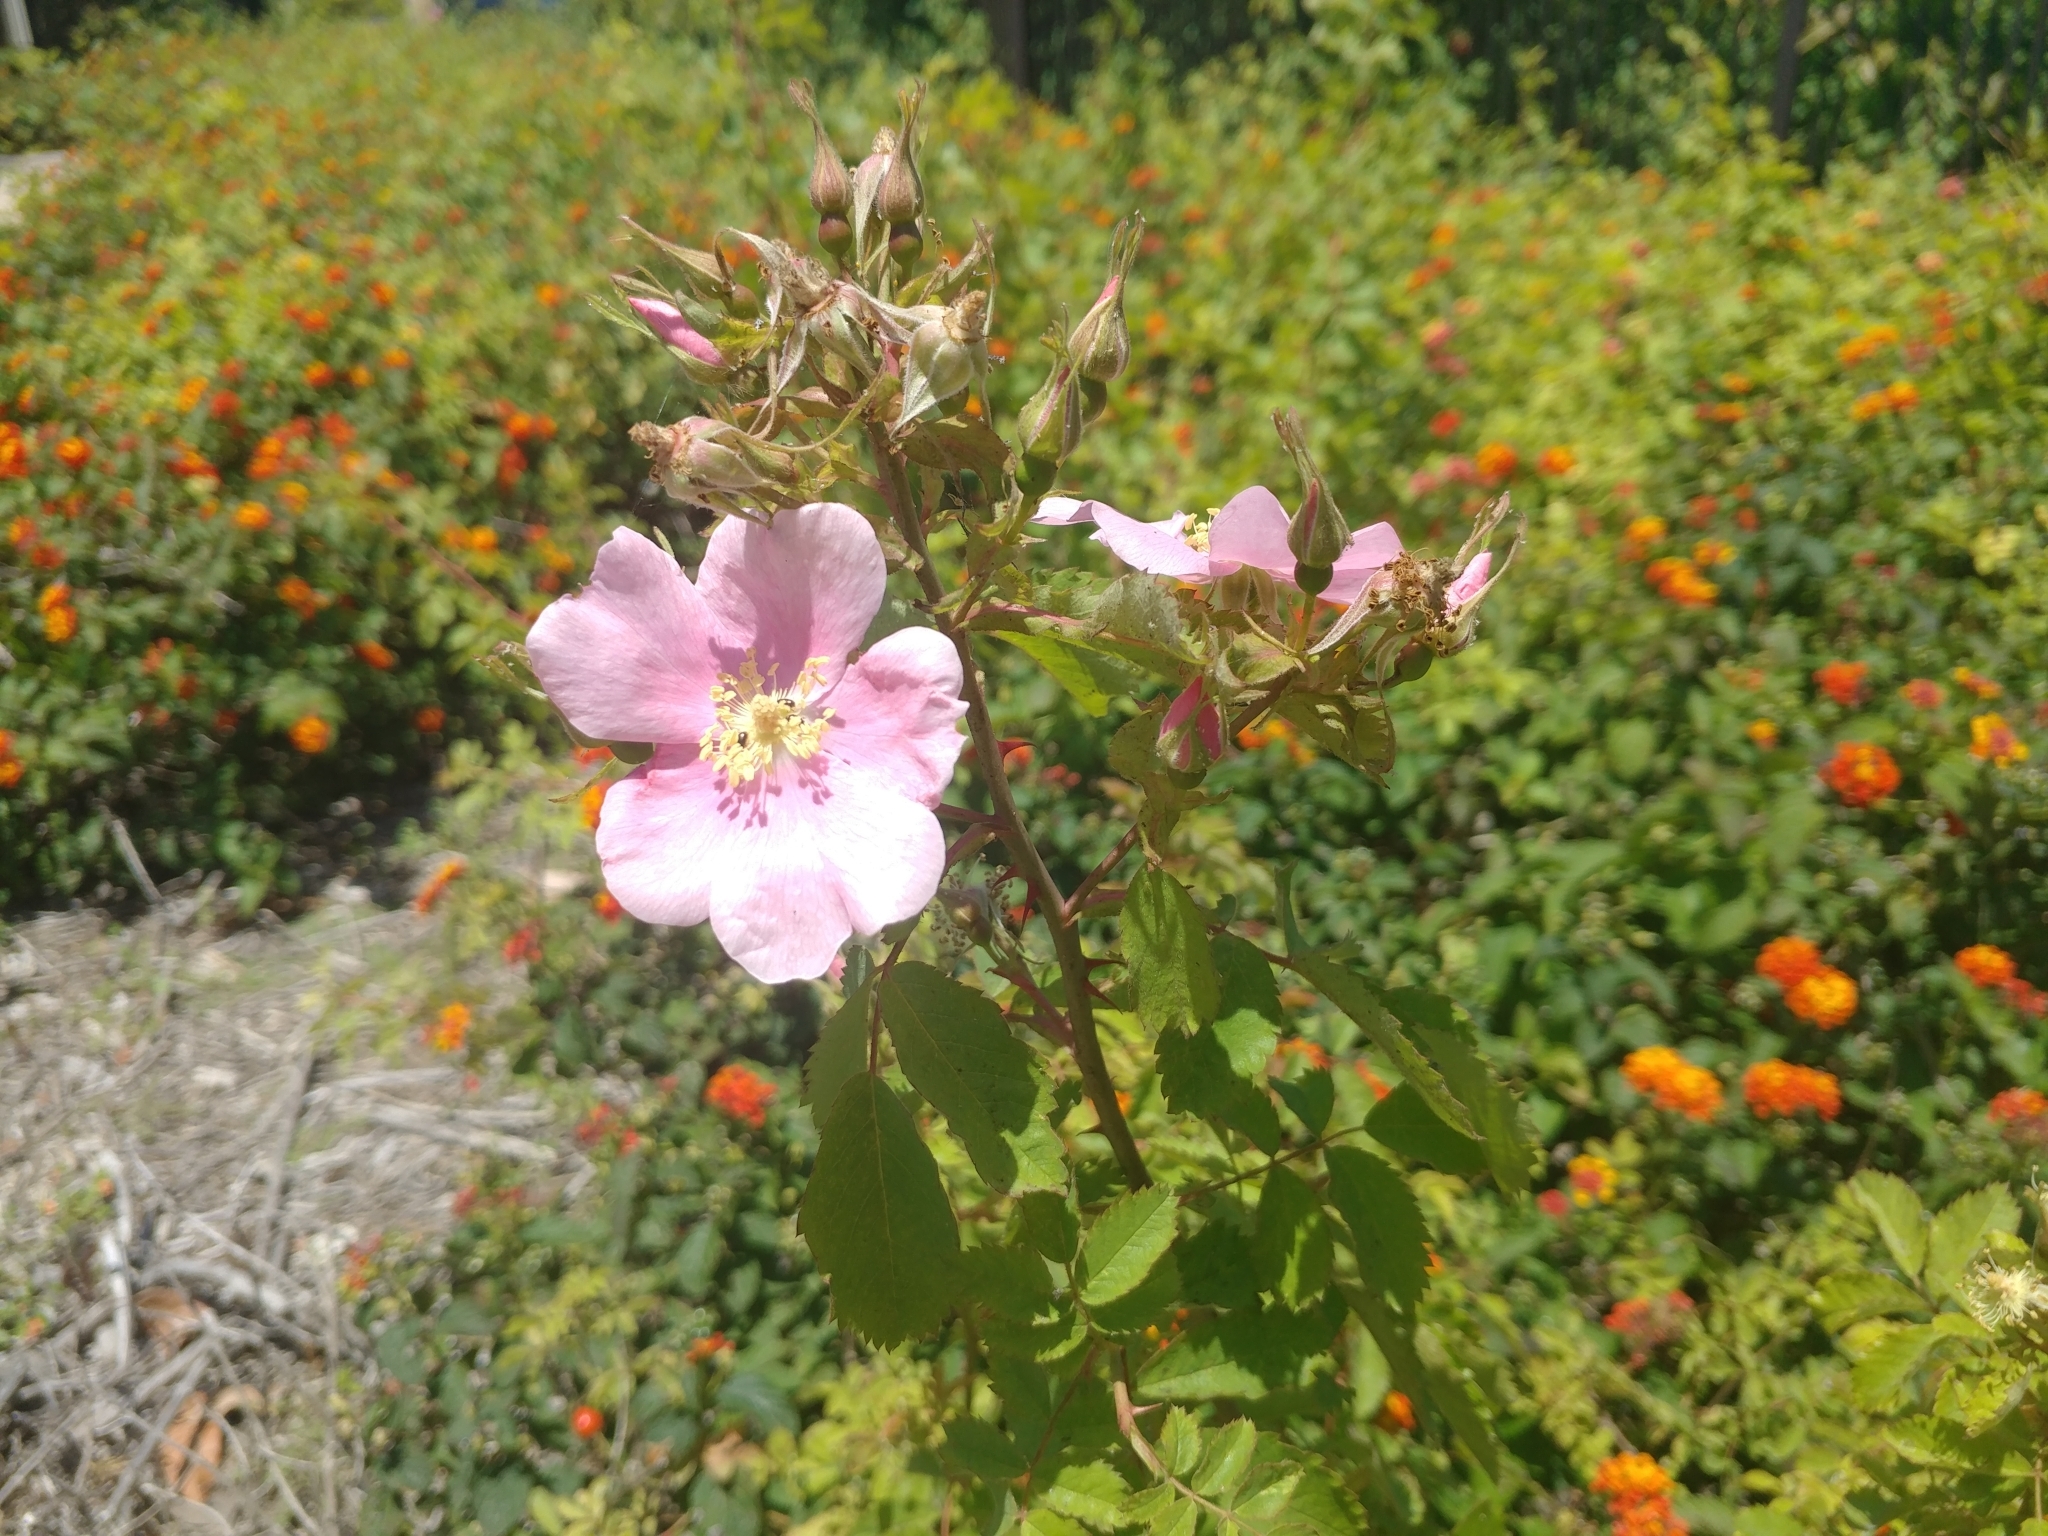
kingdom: Plantae
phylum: Tracheophyta
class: Magnoliopsida
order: Rosales
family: Rosaceae
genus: Rosa
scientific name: Rosa californica
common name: California rose
